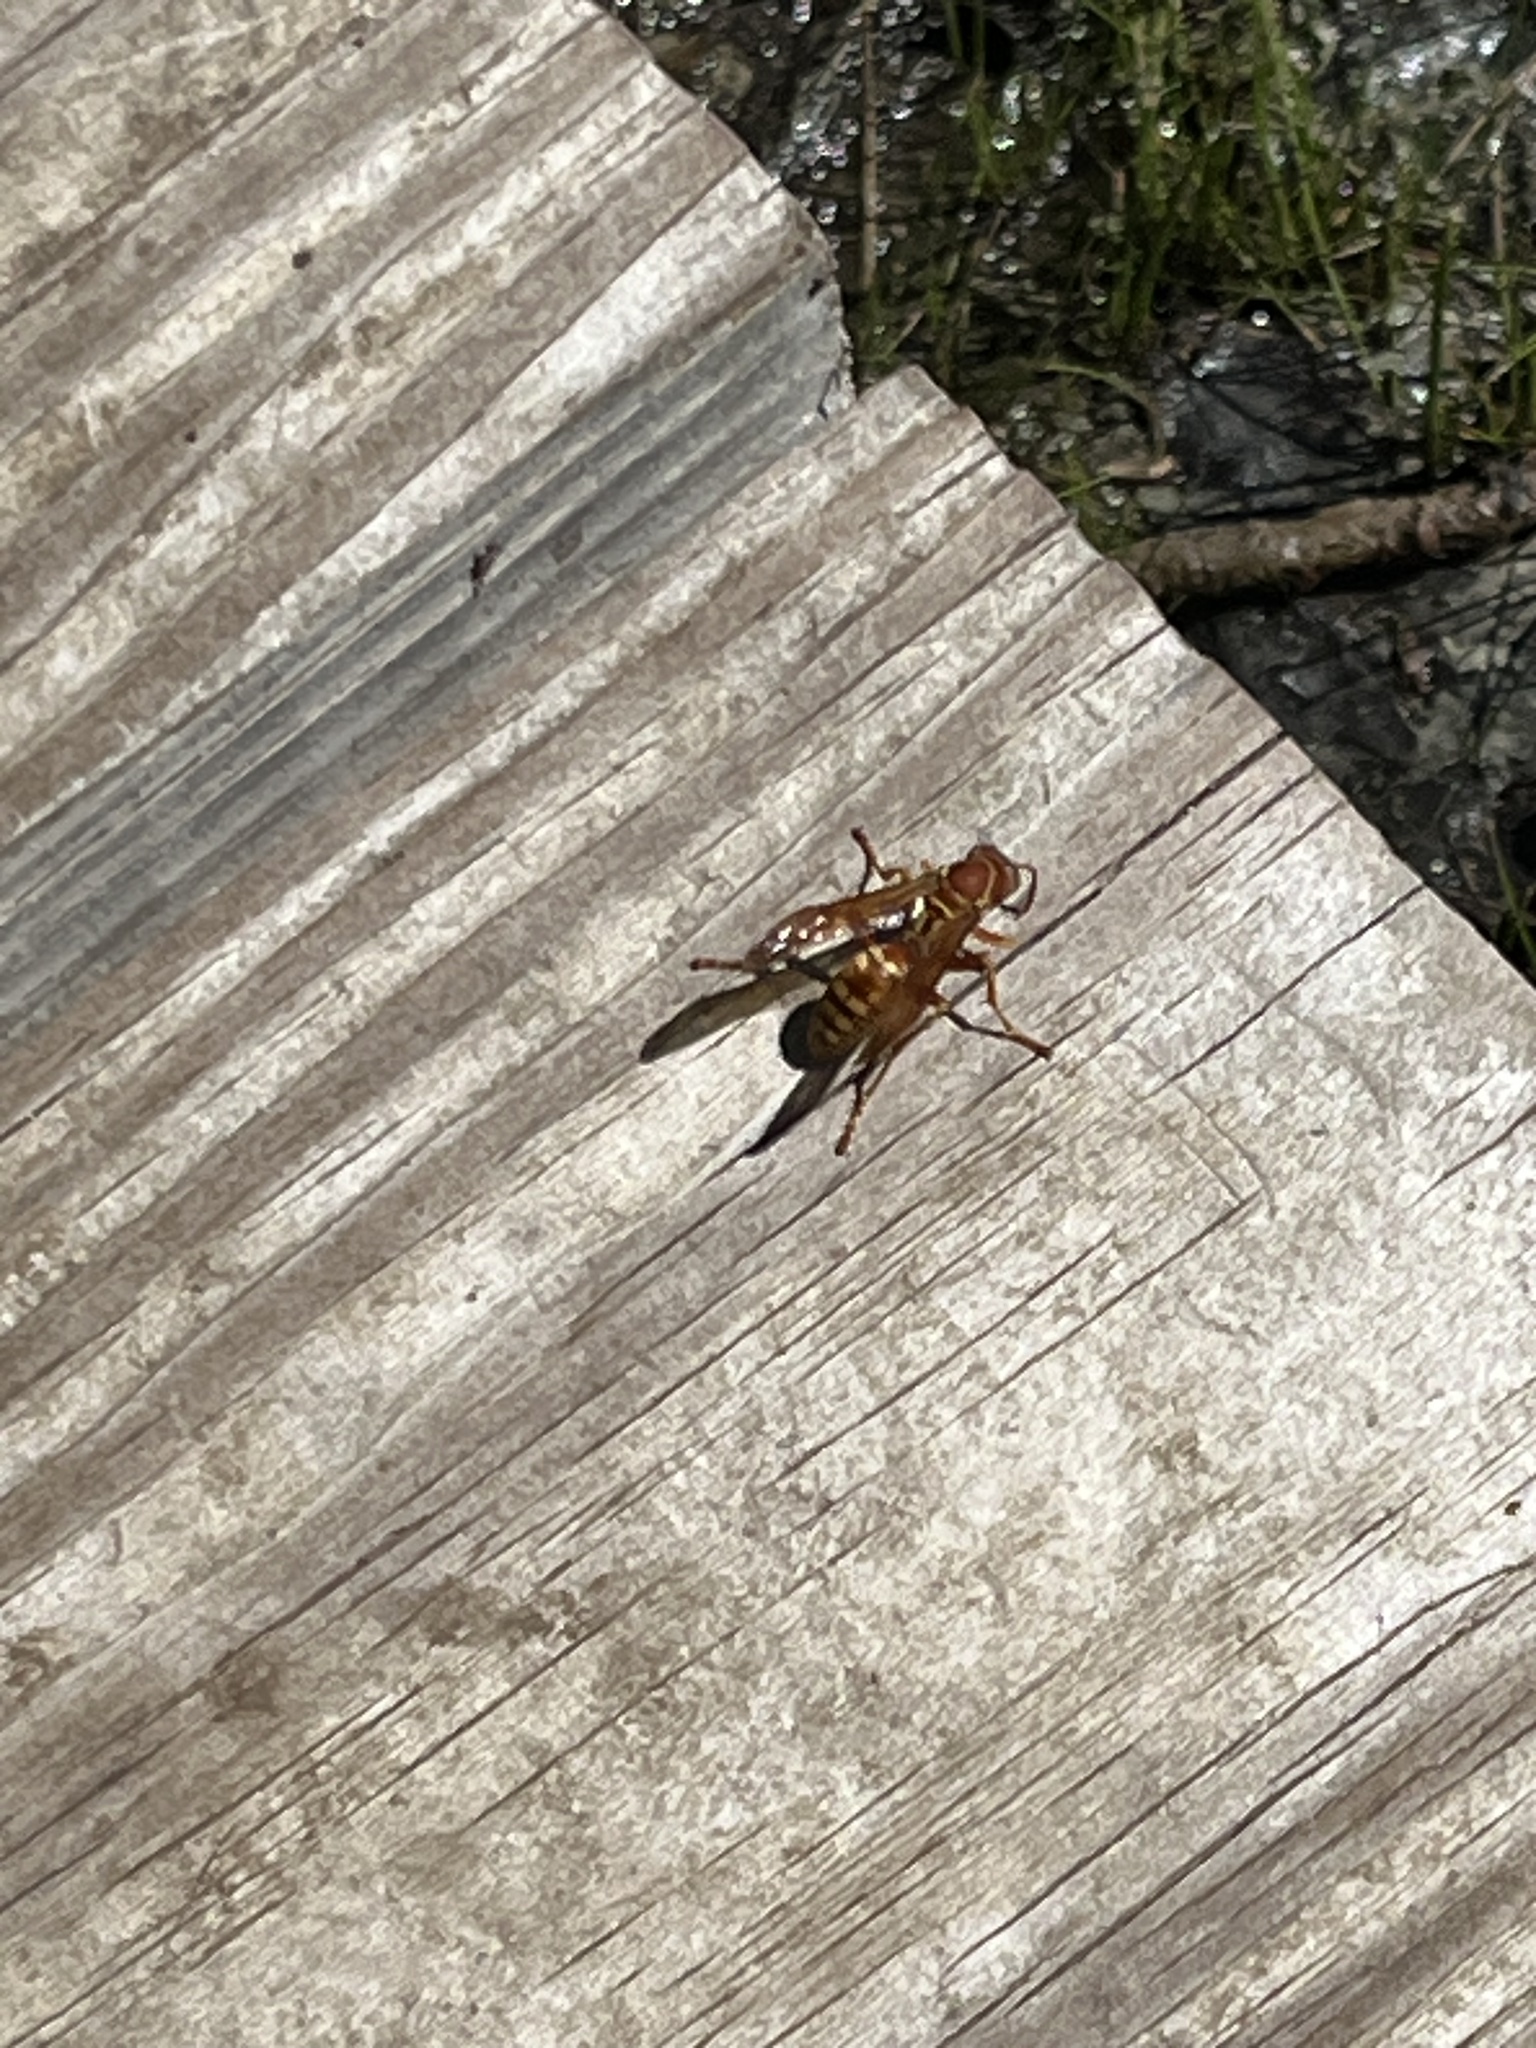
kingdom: Animalia
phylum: Arthropoda
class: Insecta
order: Hymenoptera
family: Eumenidae
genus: Polistes
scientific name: Polistes apachus
